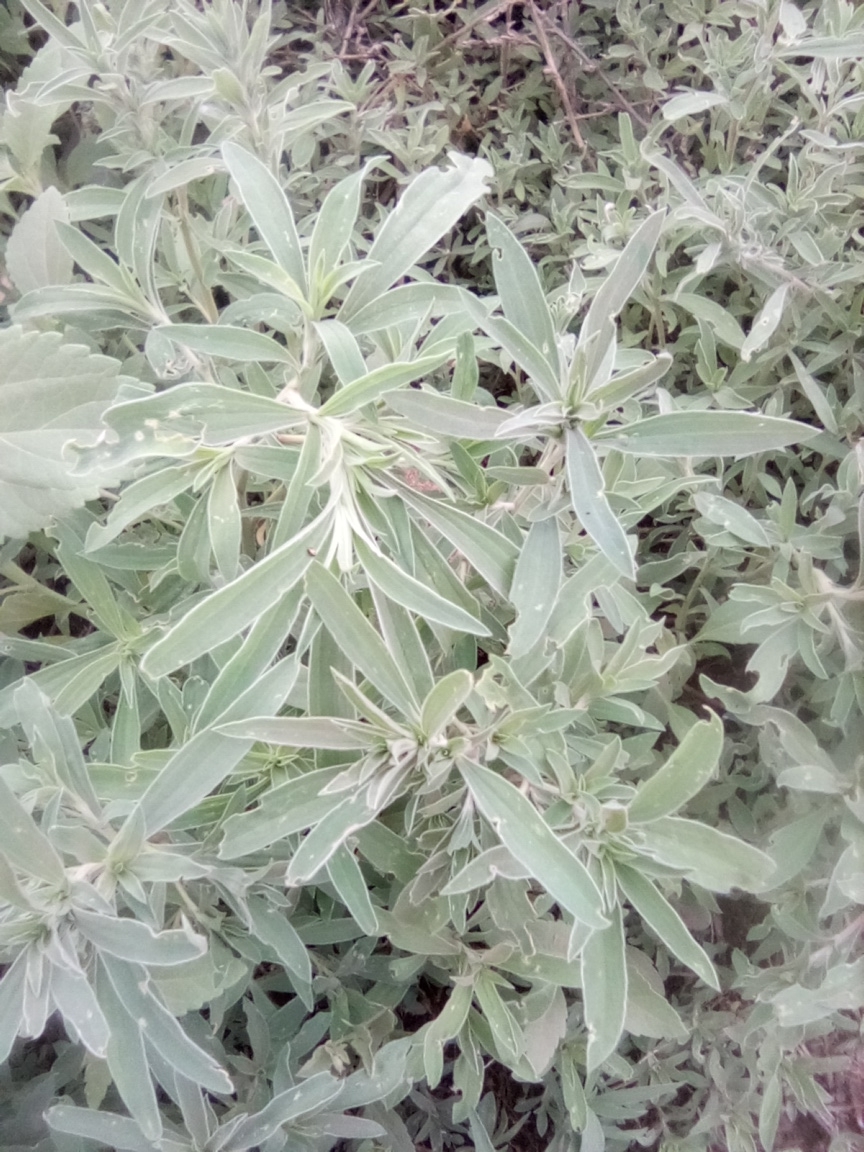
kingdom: Plantae
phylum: Tracheophyta
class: Magnoliopsida
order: Caryophyllales
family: Amaranthaceae
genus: Bassia
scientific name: Bassia scoparia
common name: Belvedere
